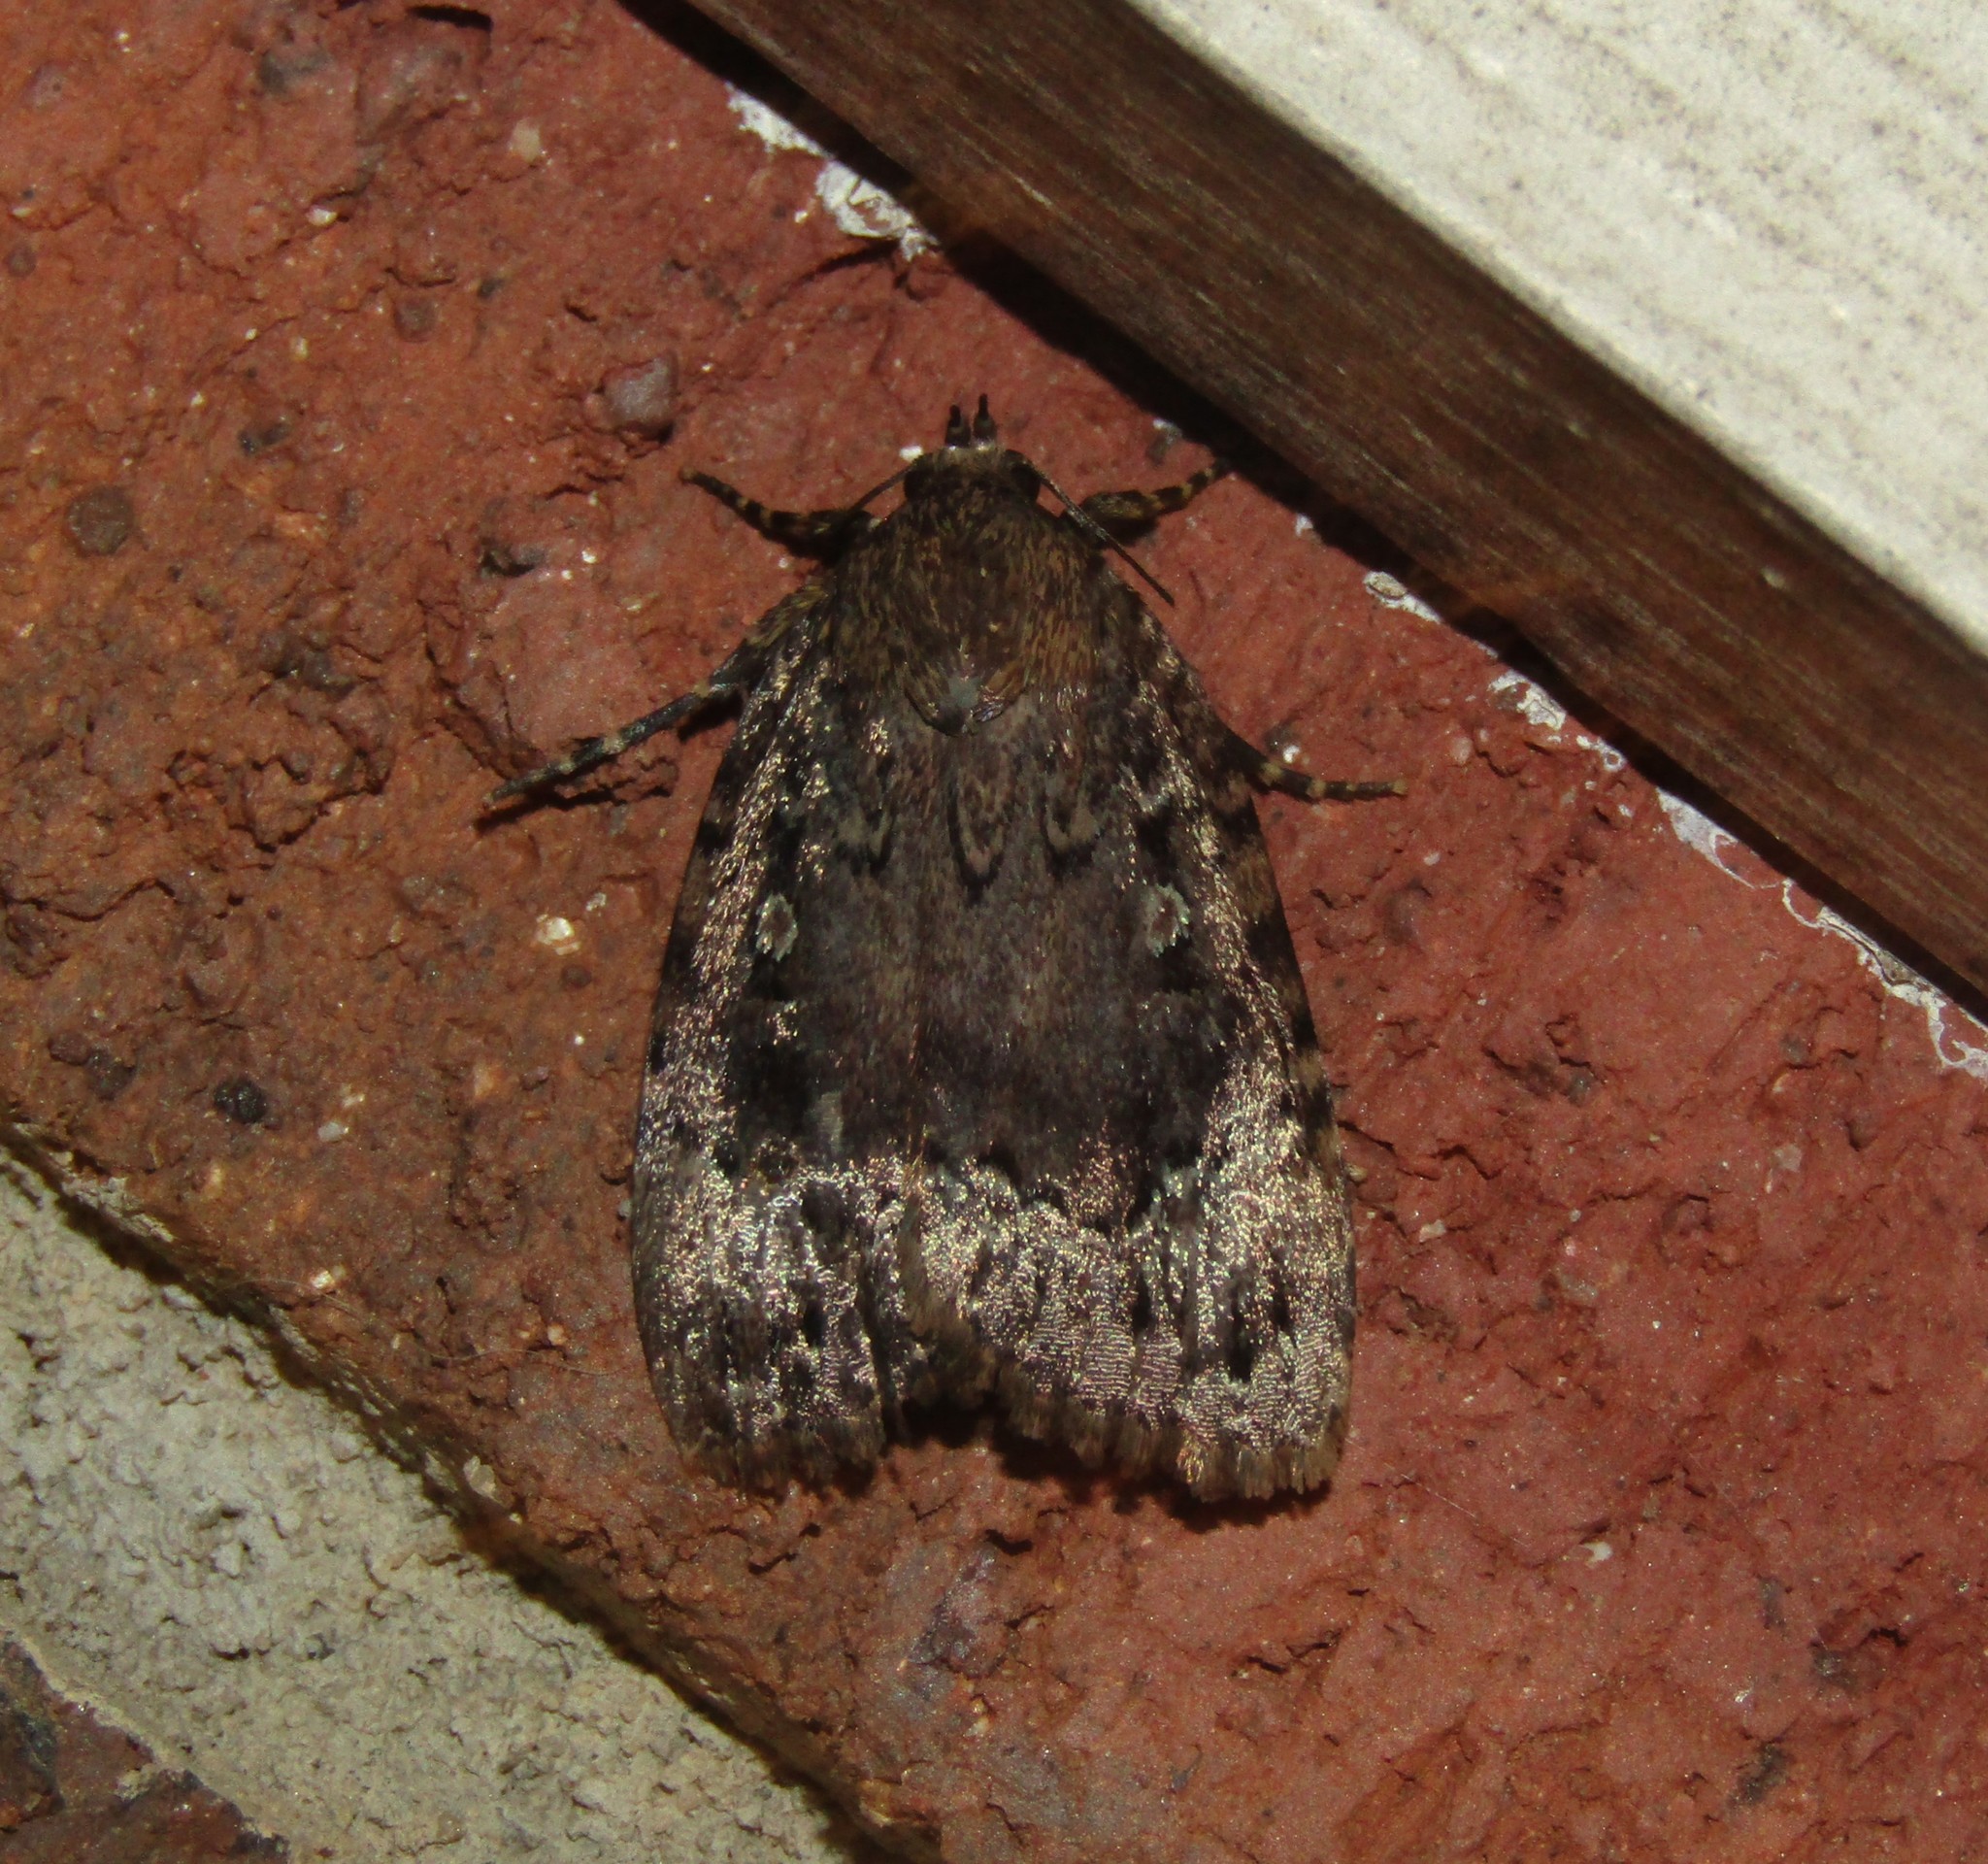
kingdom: Animalia
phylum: Arthropoda
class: Insecta
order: Lepidoptera
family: Noctuidae
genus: Amphipyra
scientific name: Amphipyra pyramidoides
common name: American copper underwing
